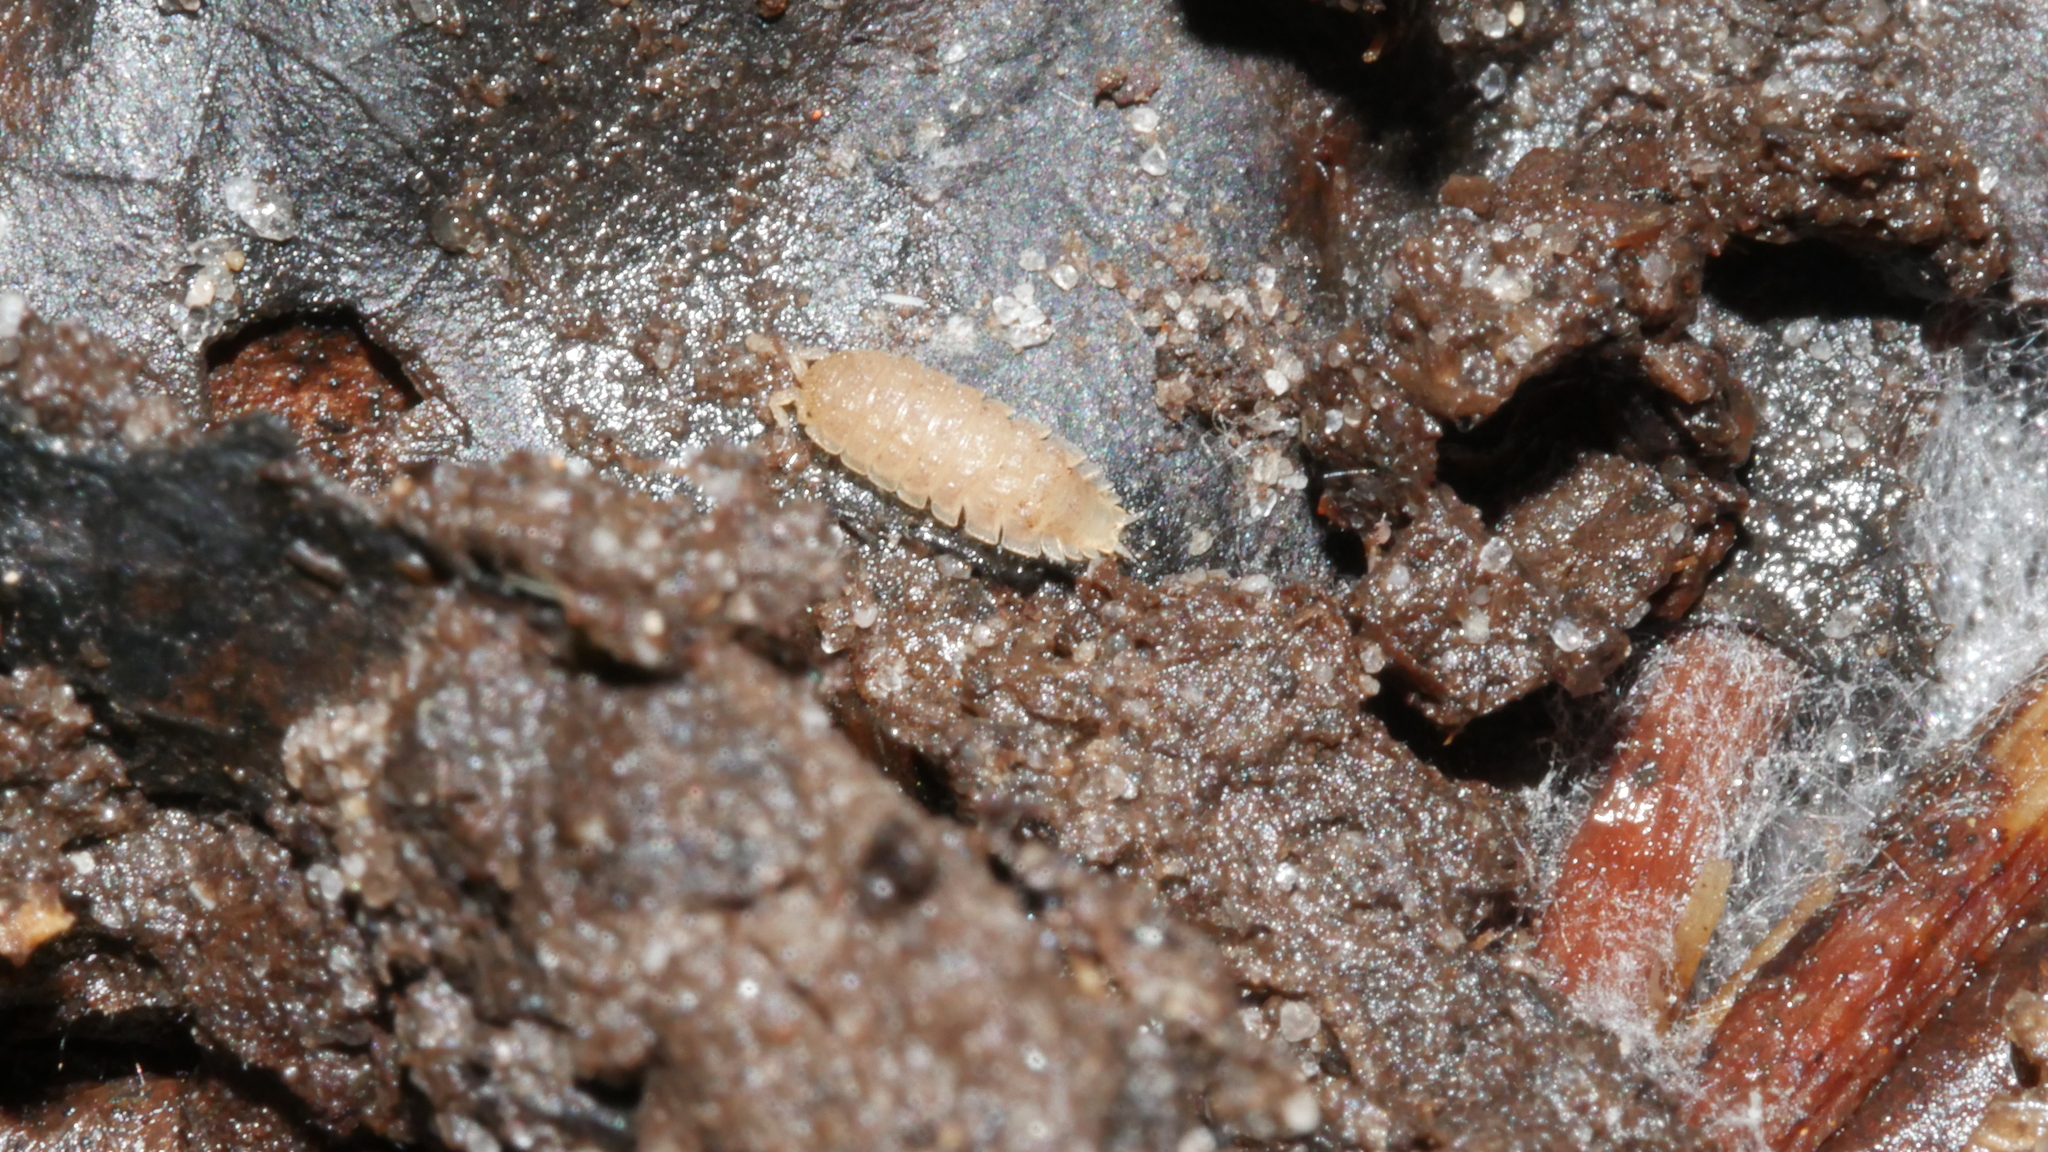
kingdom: Animalia
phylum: Arthropoda
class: Malacostraca
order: Isopoda
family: Trichoniscidae
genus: Haplophthalmus
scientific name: Haplophthalmus danicus
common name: Pillbug
